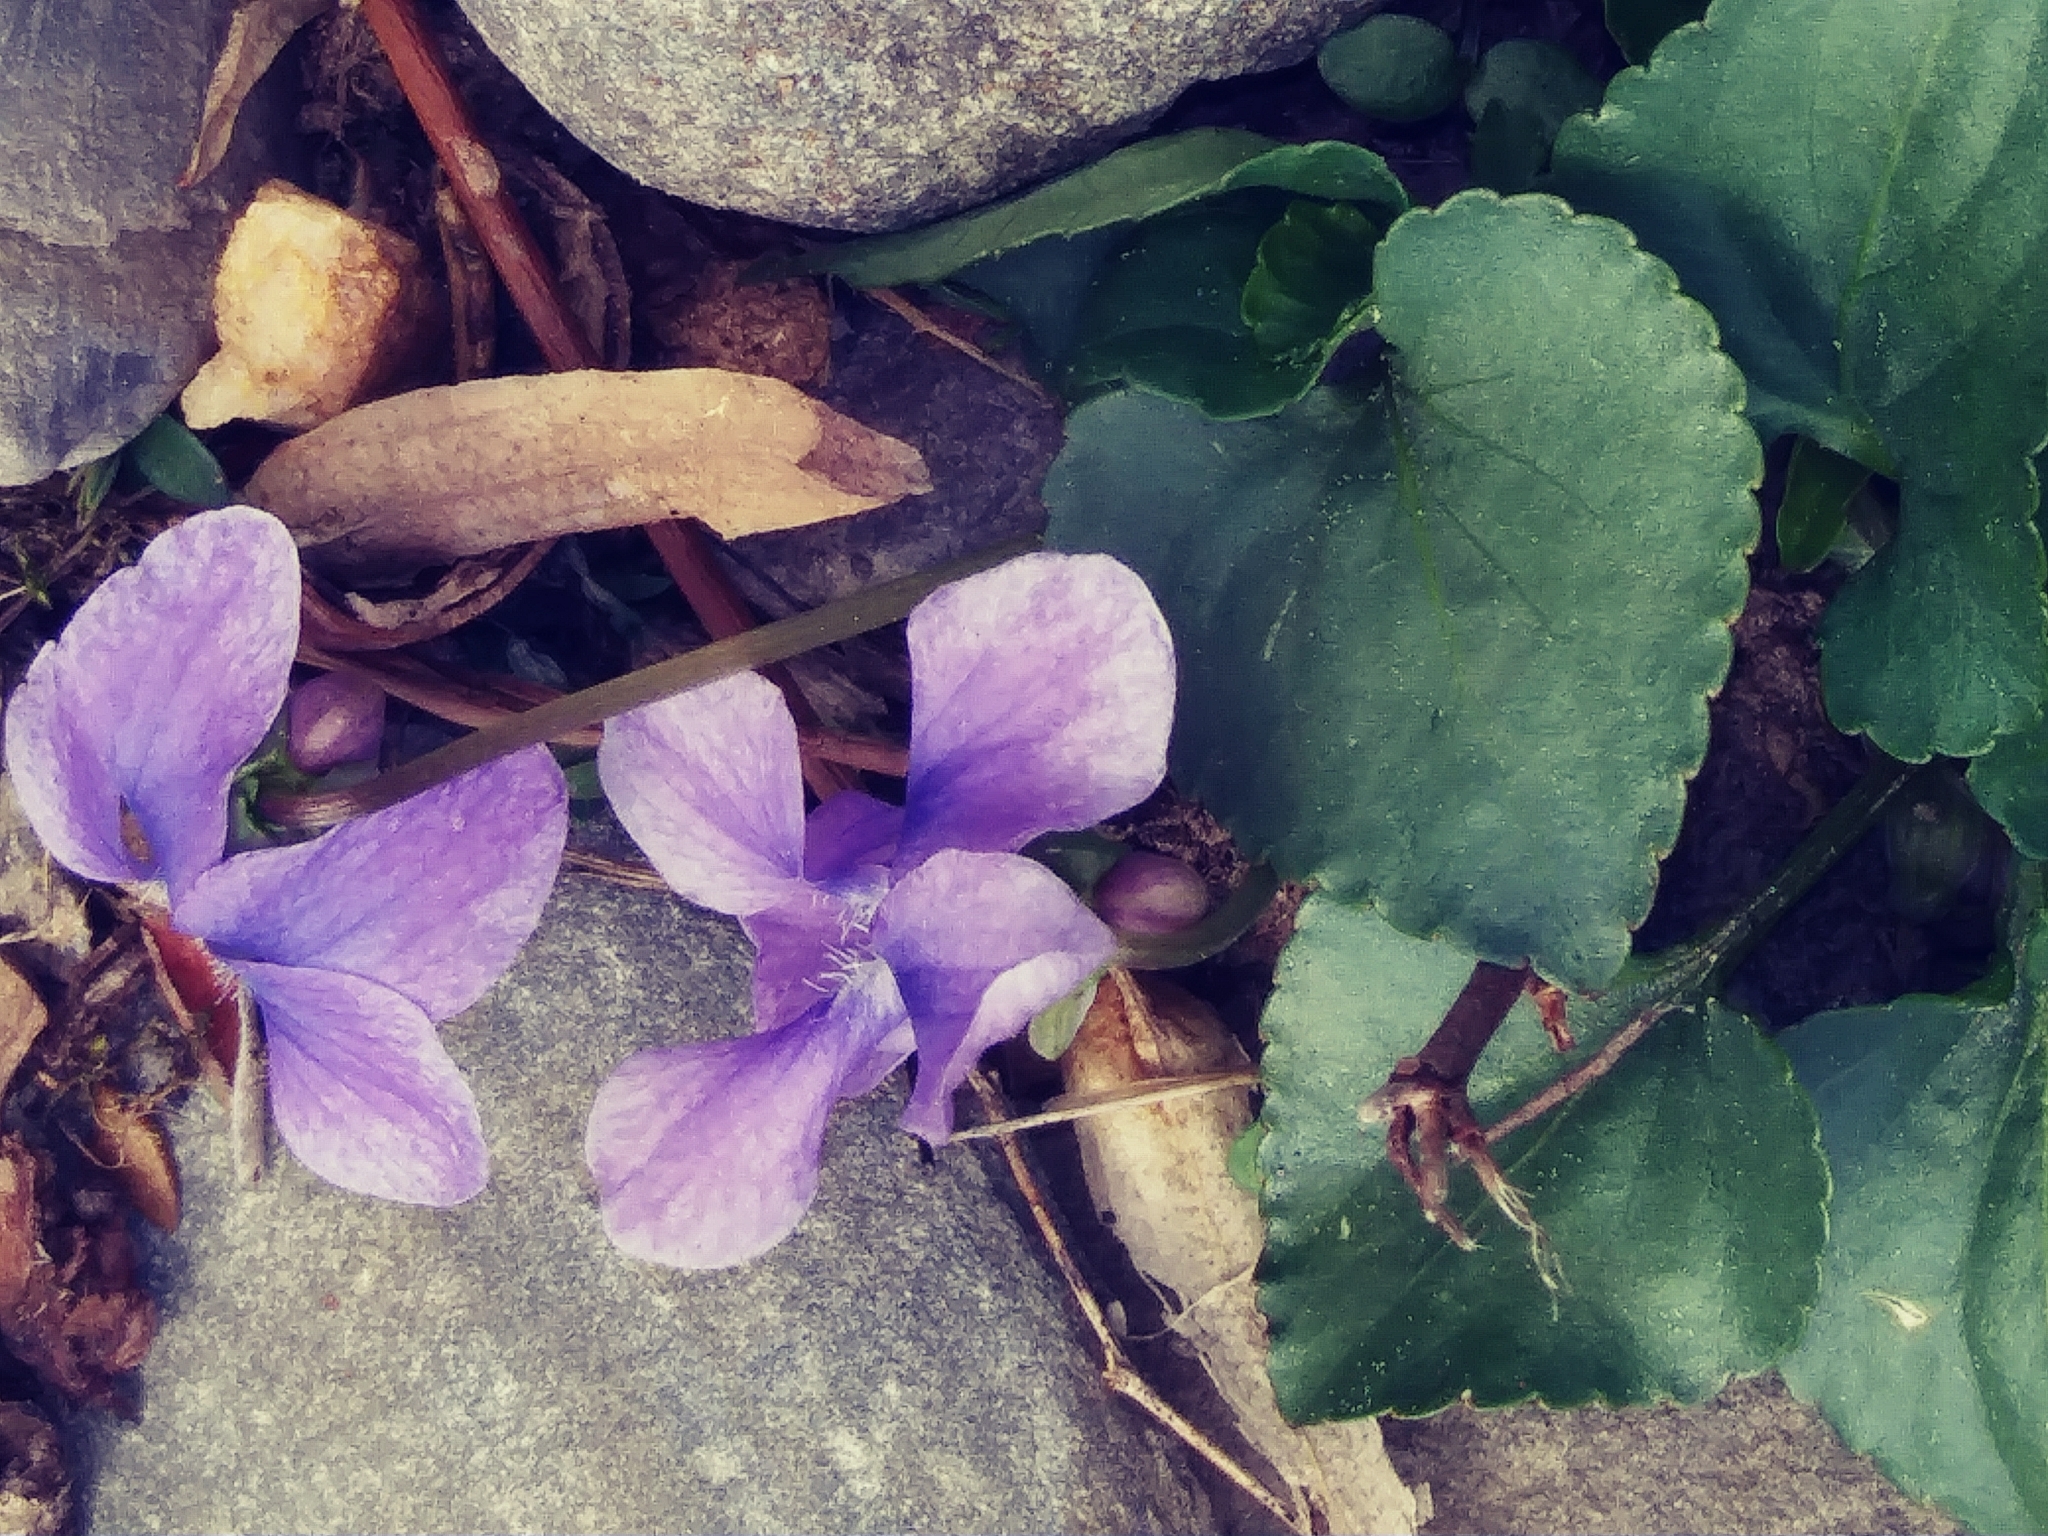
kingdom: Plantae
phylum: Tracheophyta
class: Magnoliopsida
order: Malpighiales
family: Violaceae
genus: Viola
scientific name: Viola sororia
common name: Dooryard violet
